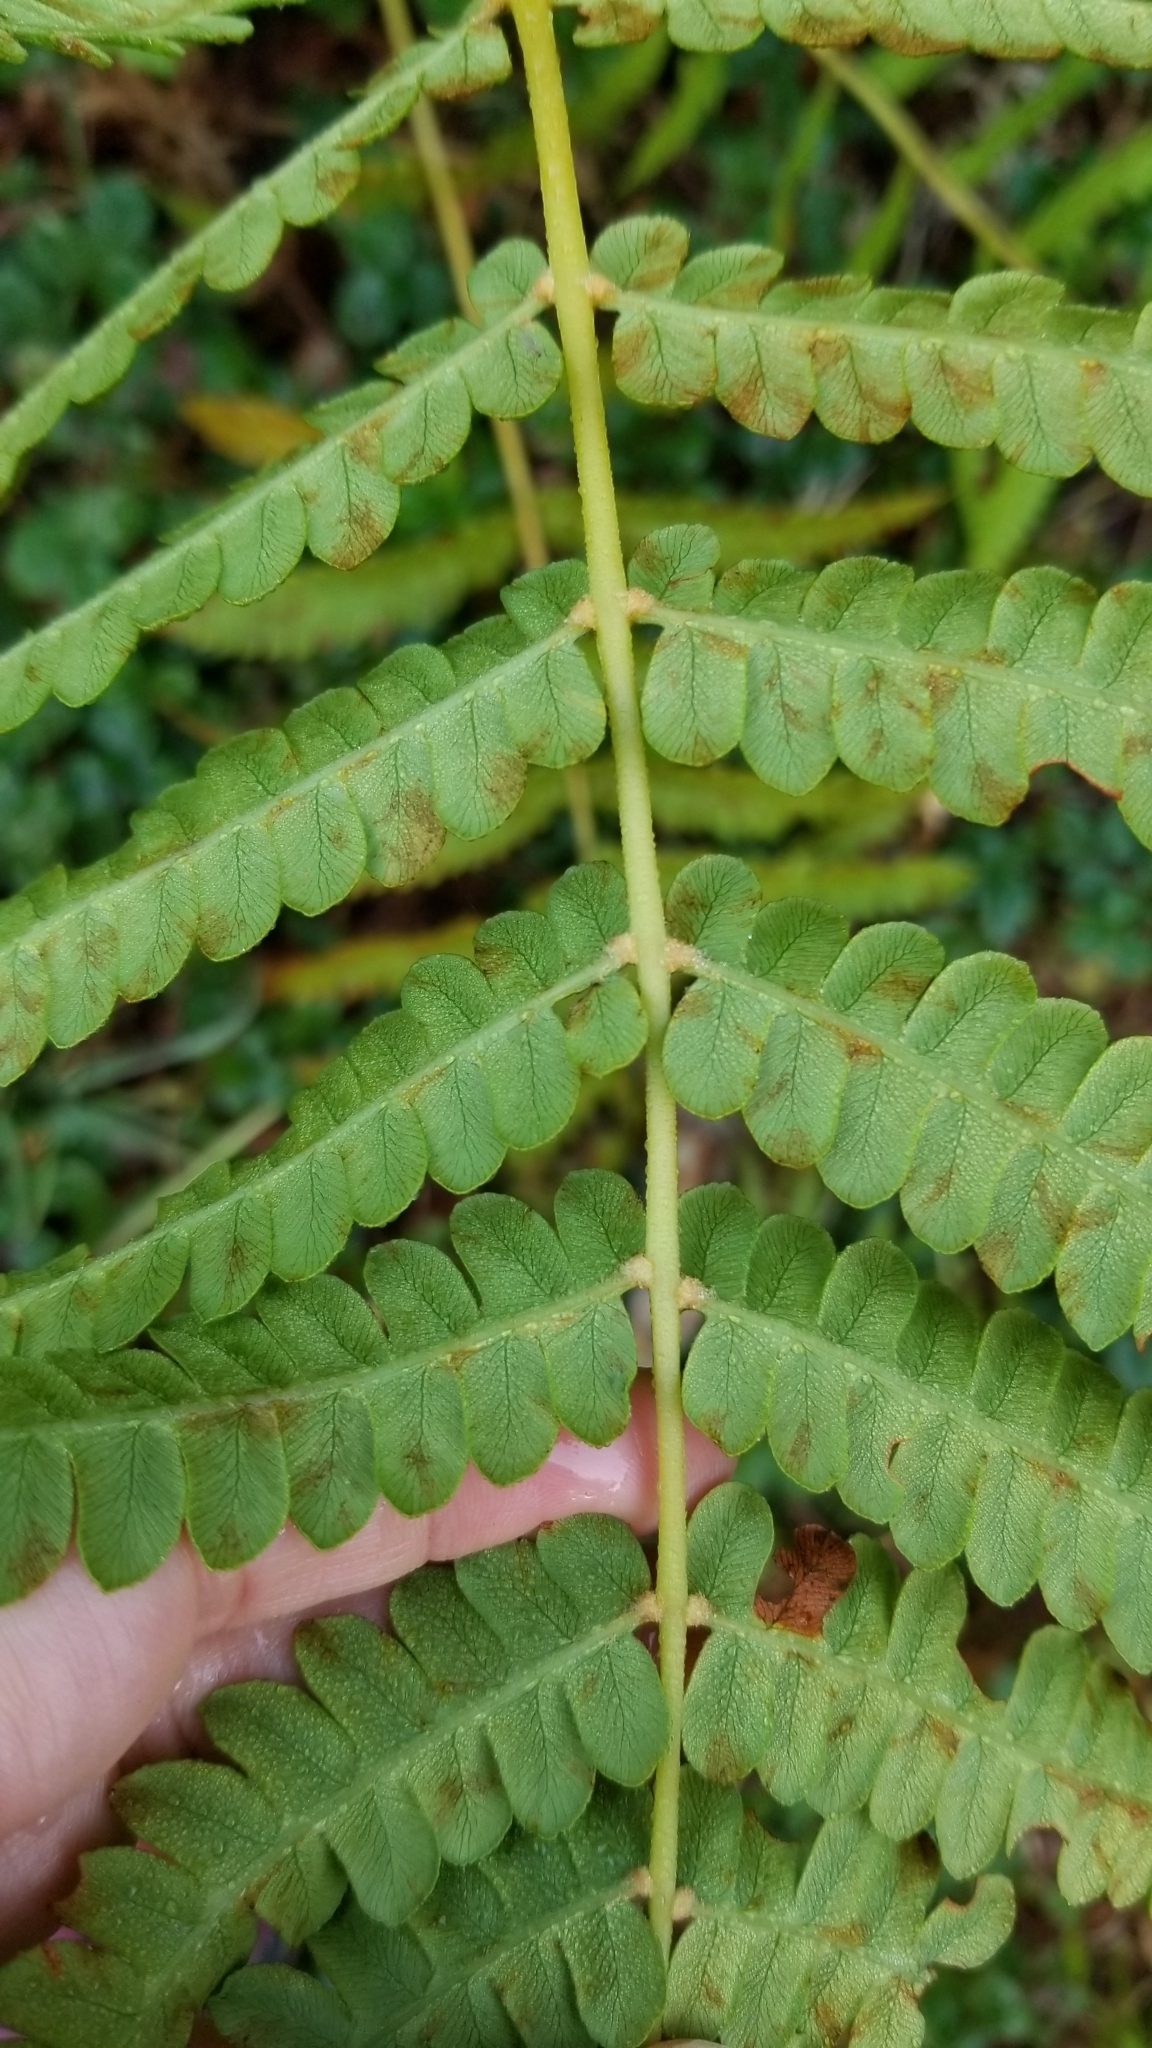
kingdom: Plantae
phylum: Tracheophyta
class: Polypodiopsida
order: Osmundales
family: Osmundaceae
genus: Osmundastrum
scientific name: Osmundastrum cinnamomeum
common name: Cinnamon fern
